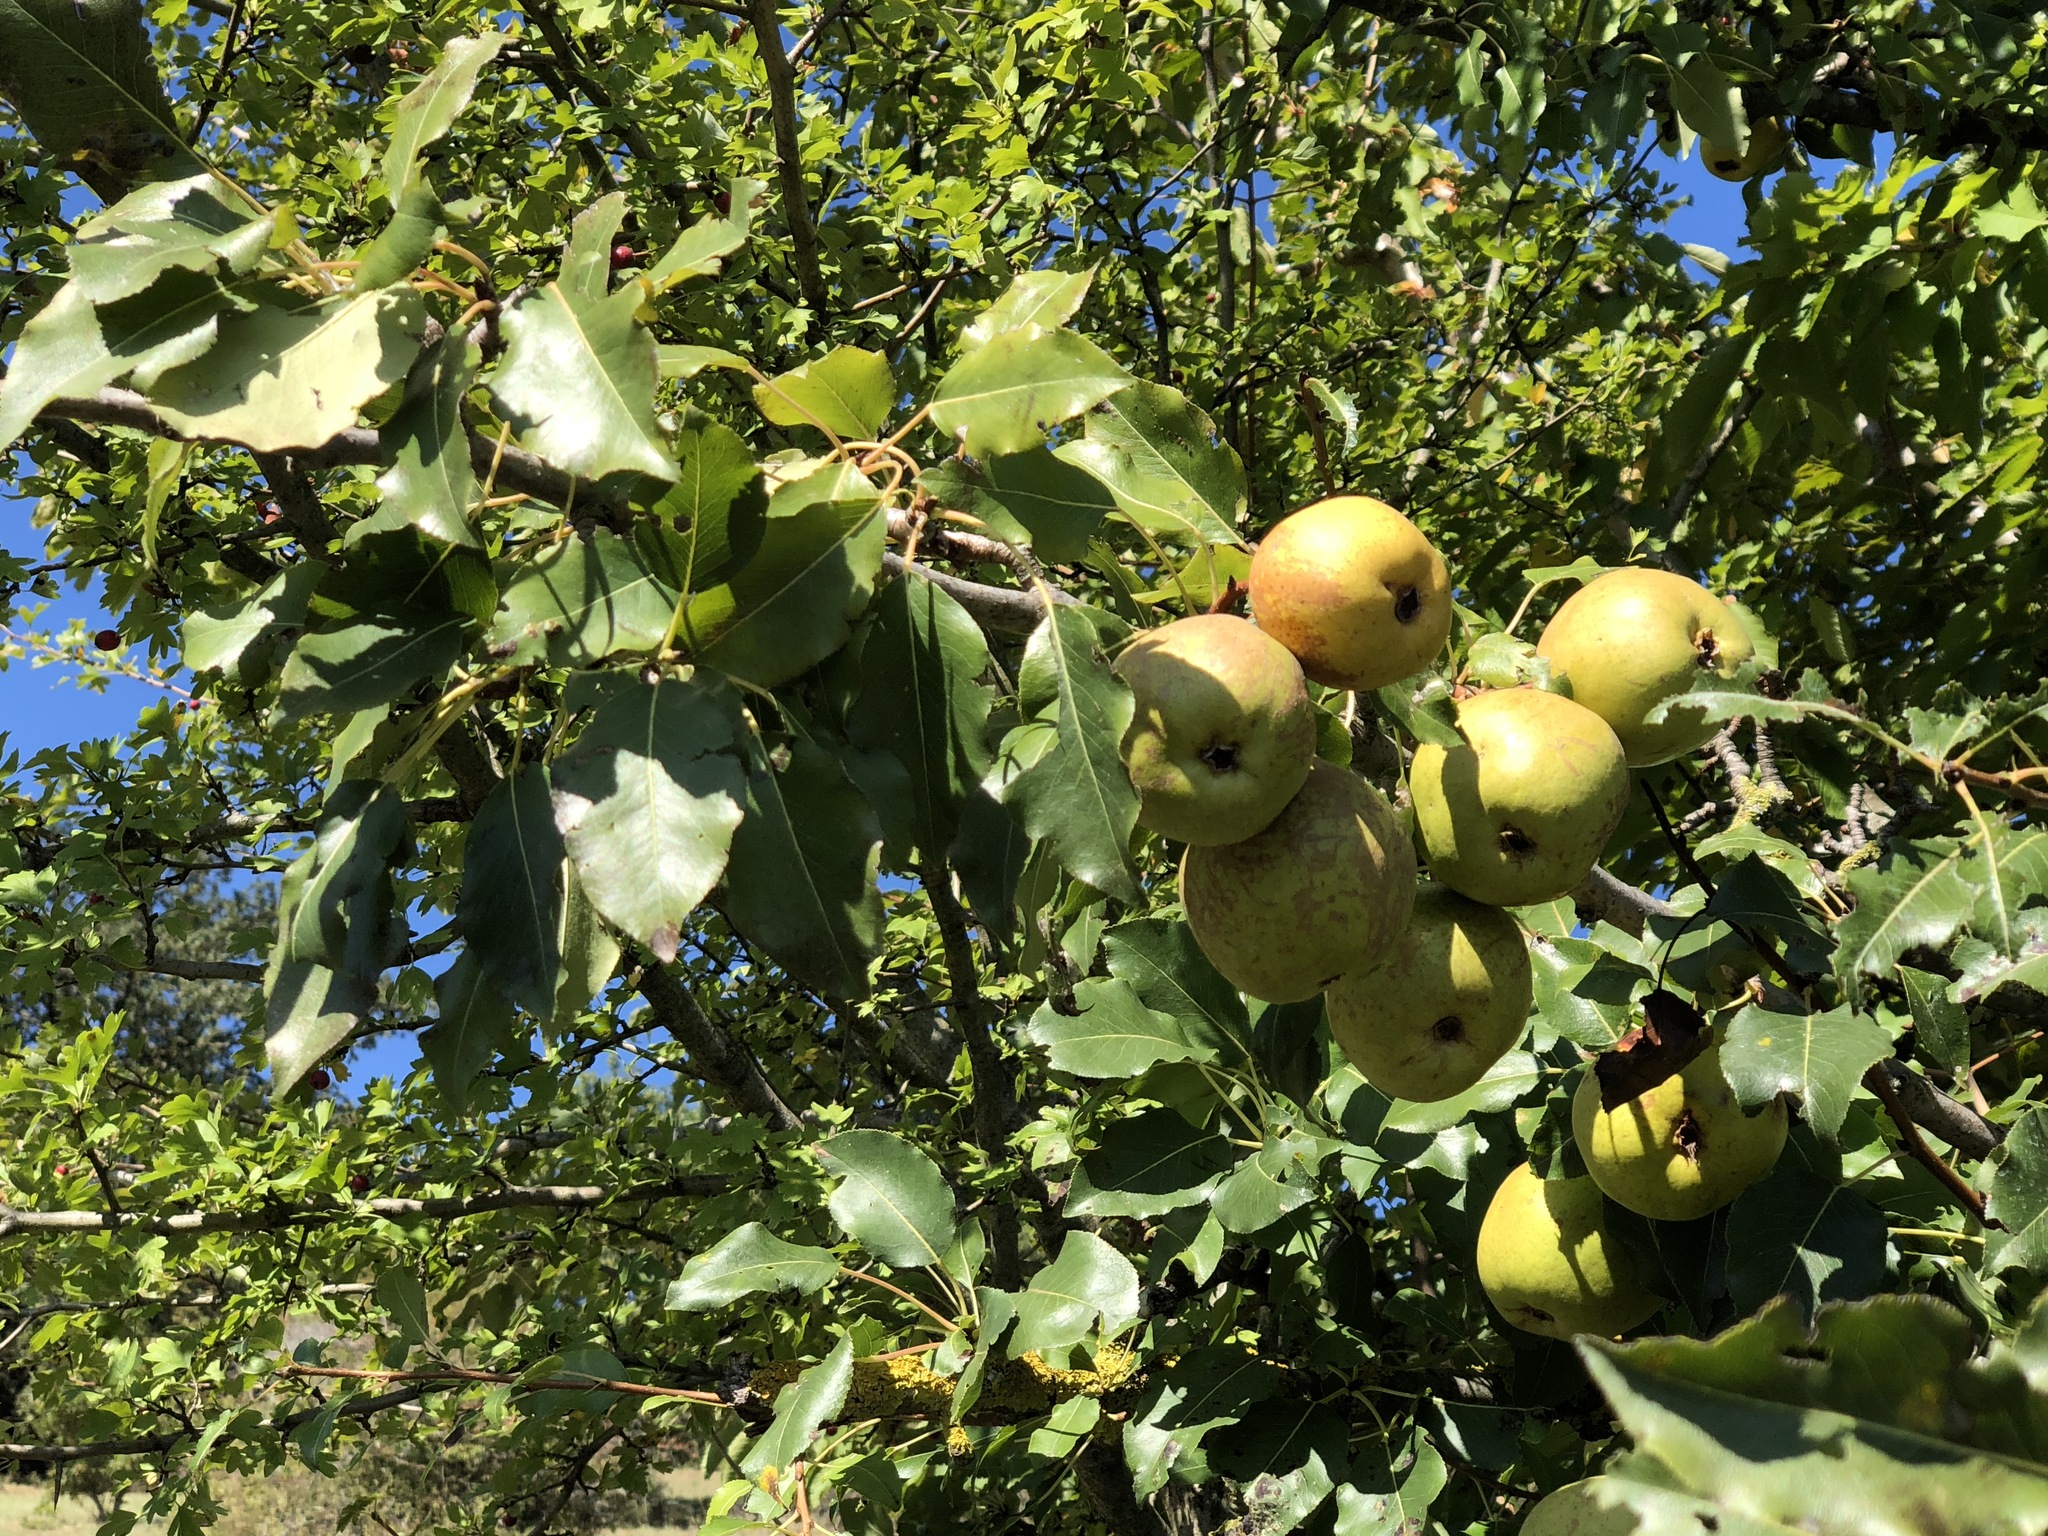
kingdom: Plantae
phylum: Tracheophyta
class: Magnoliopsida
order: Rosales
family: Rosaceae
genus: Pyrus
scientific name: Pyrus communis
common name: Pear
